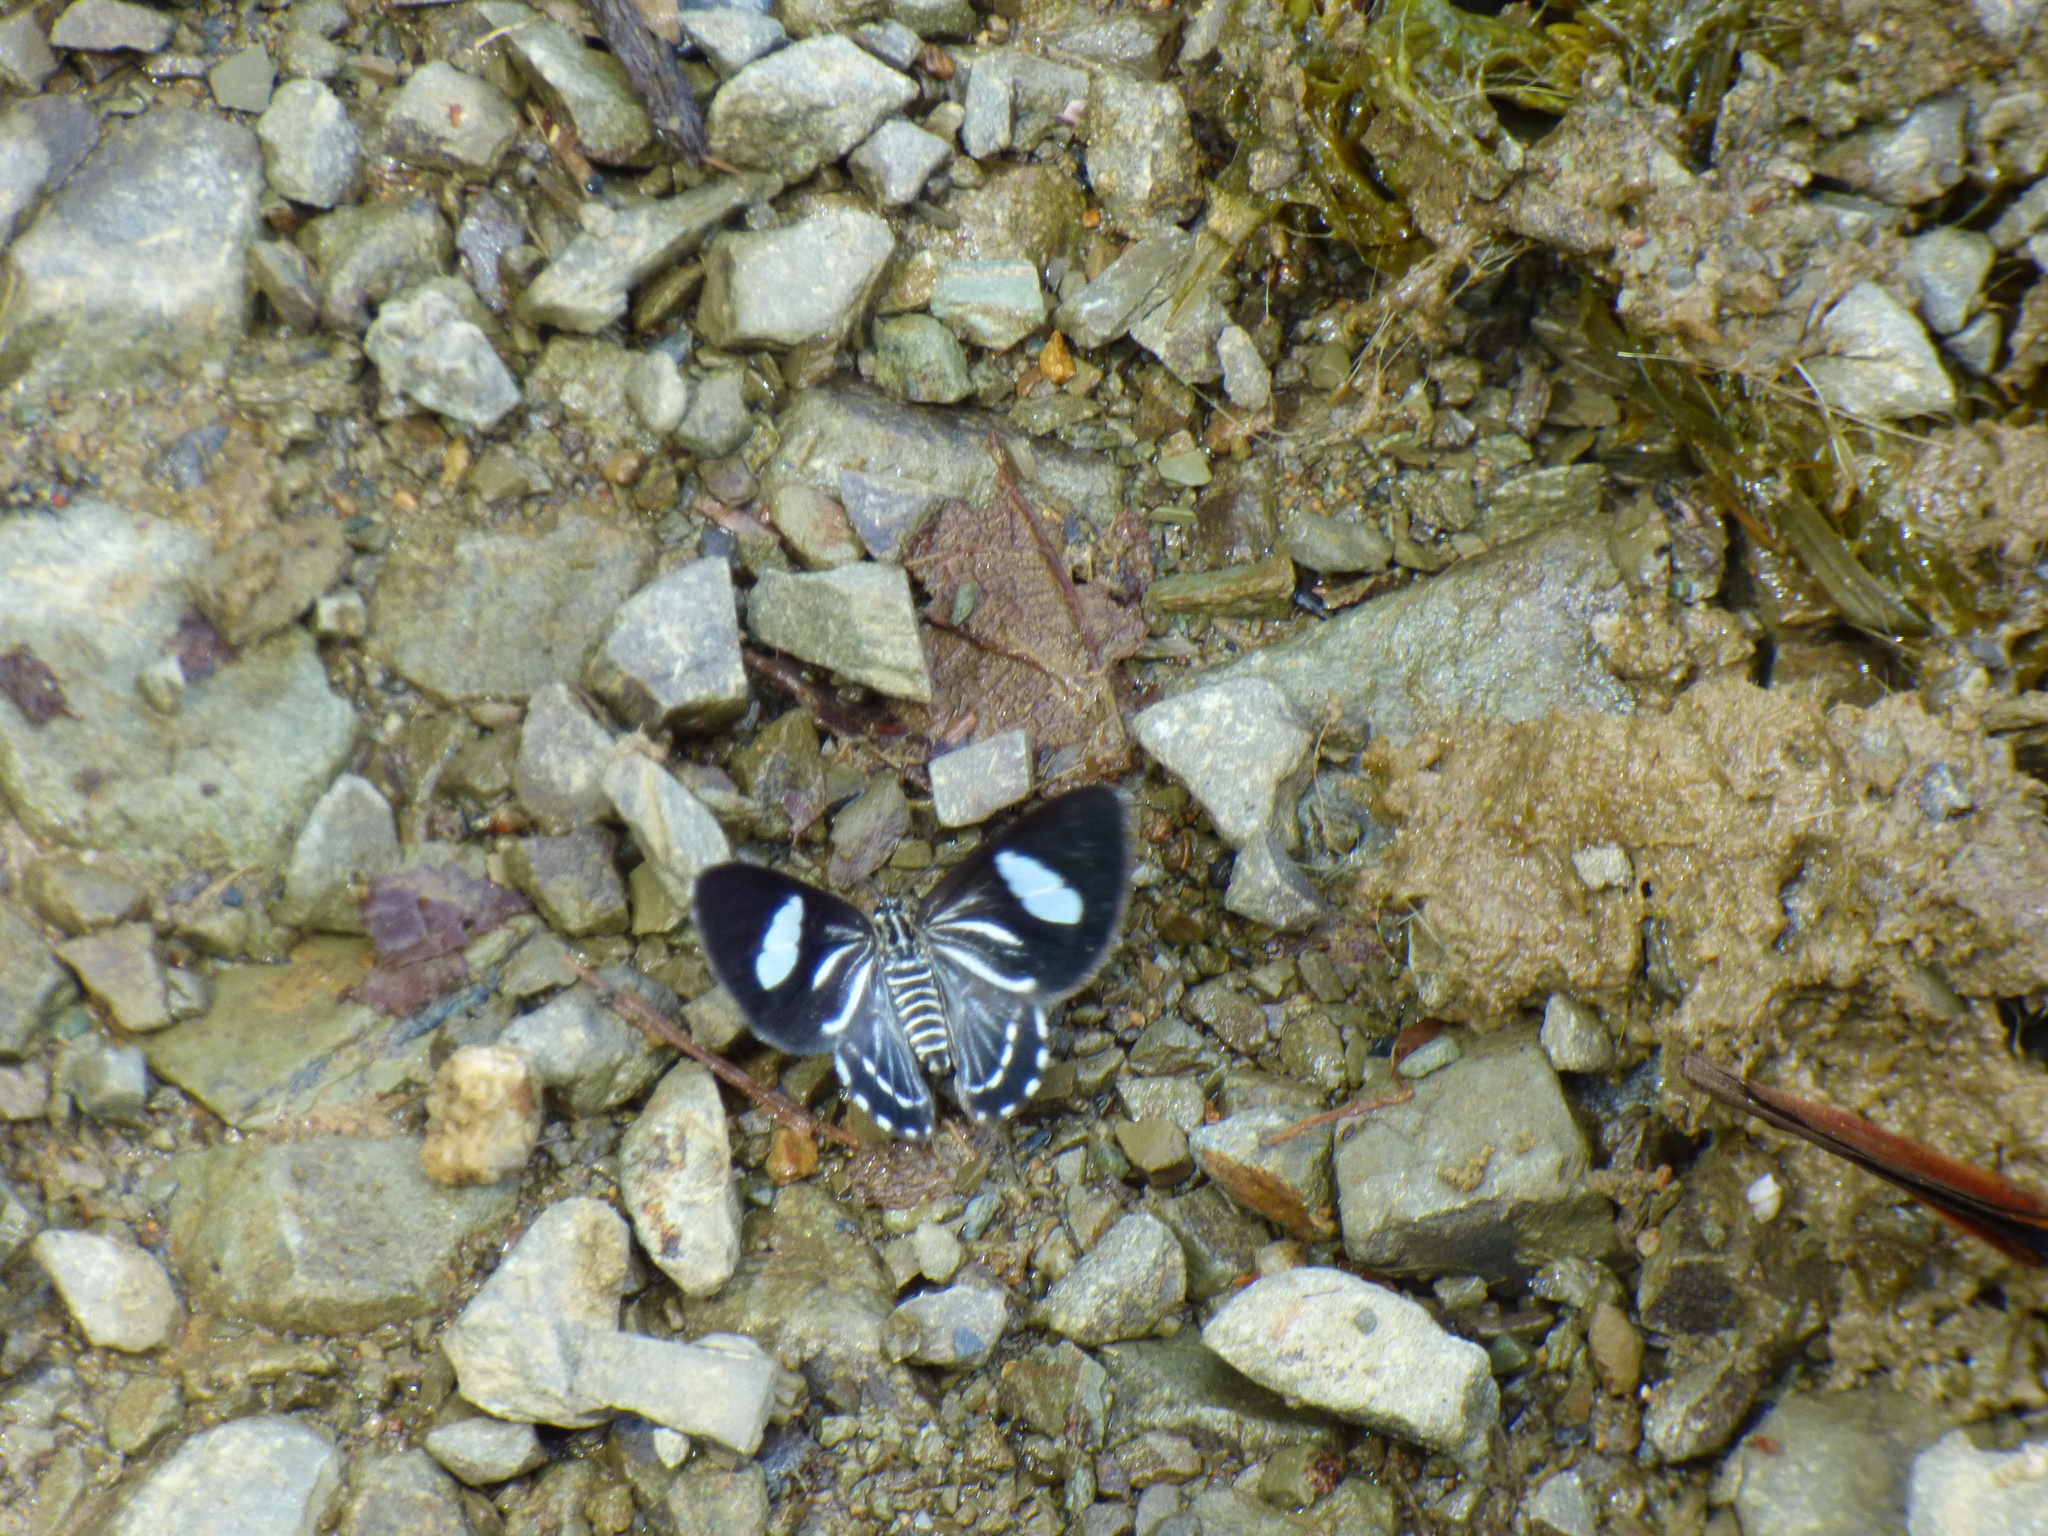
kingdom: Animalia
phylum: Arthropoda
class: Insecta
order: Lepidoptera
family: Geometridae
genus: Erateina
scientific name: Erateina siliquata
